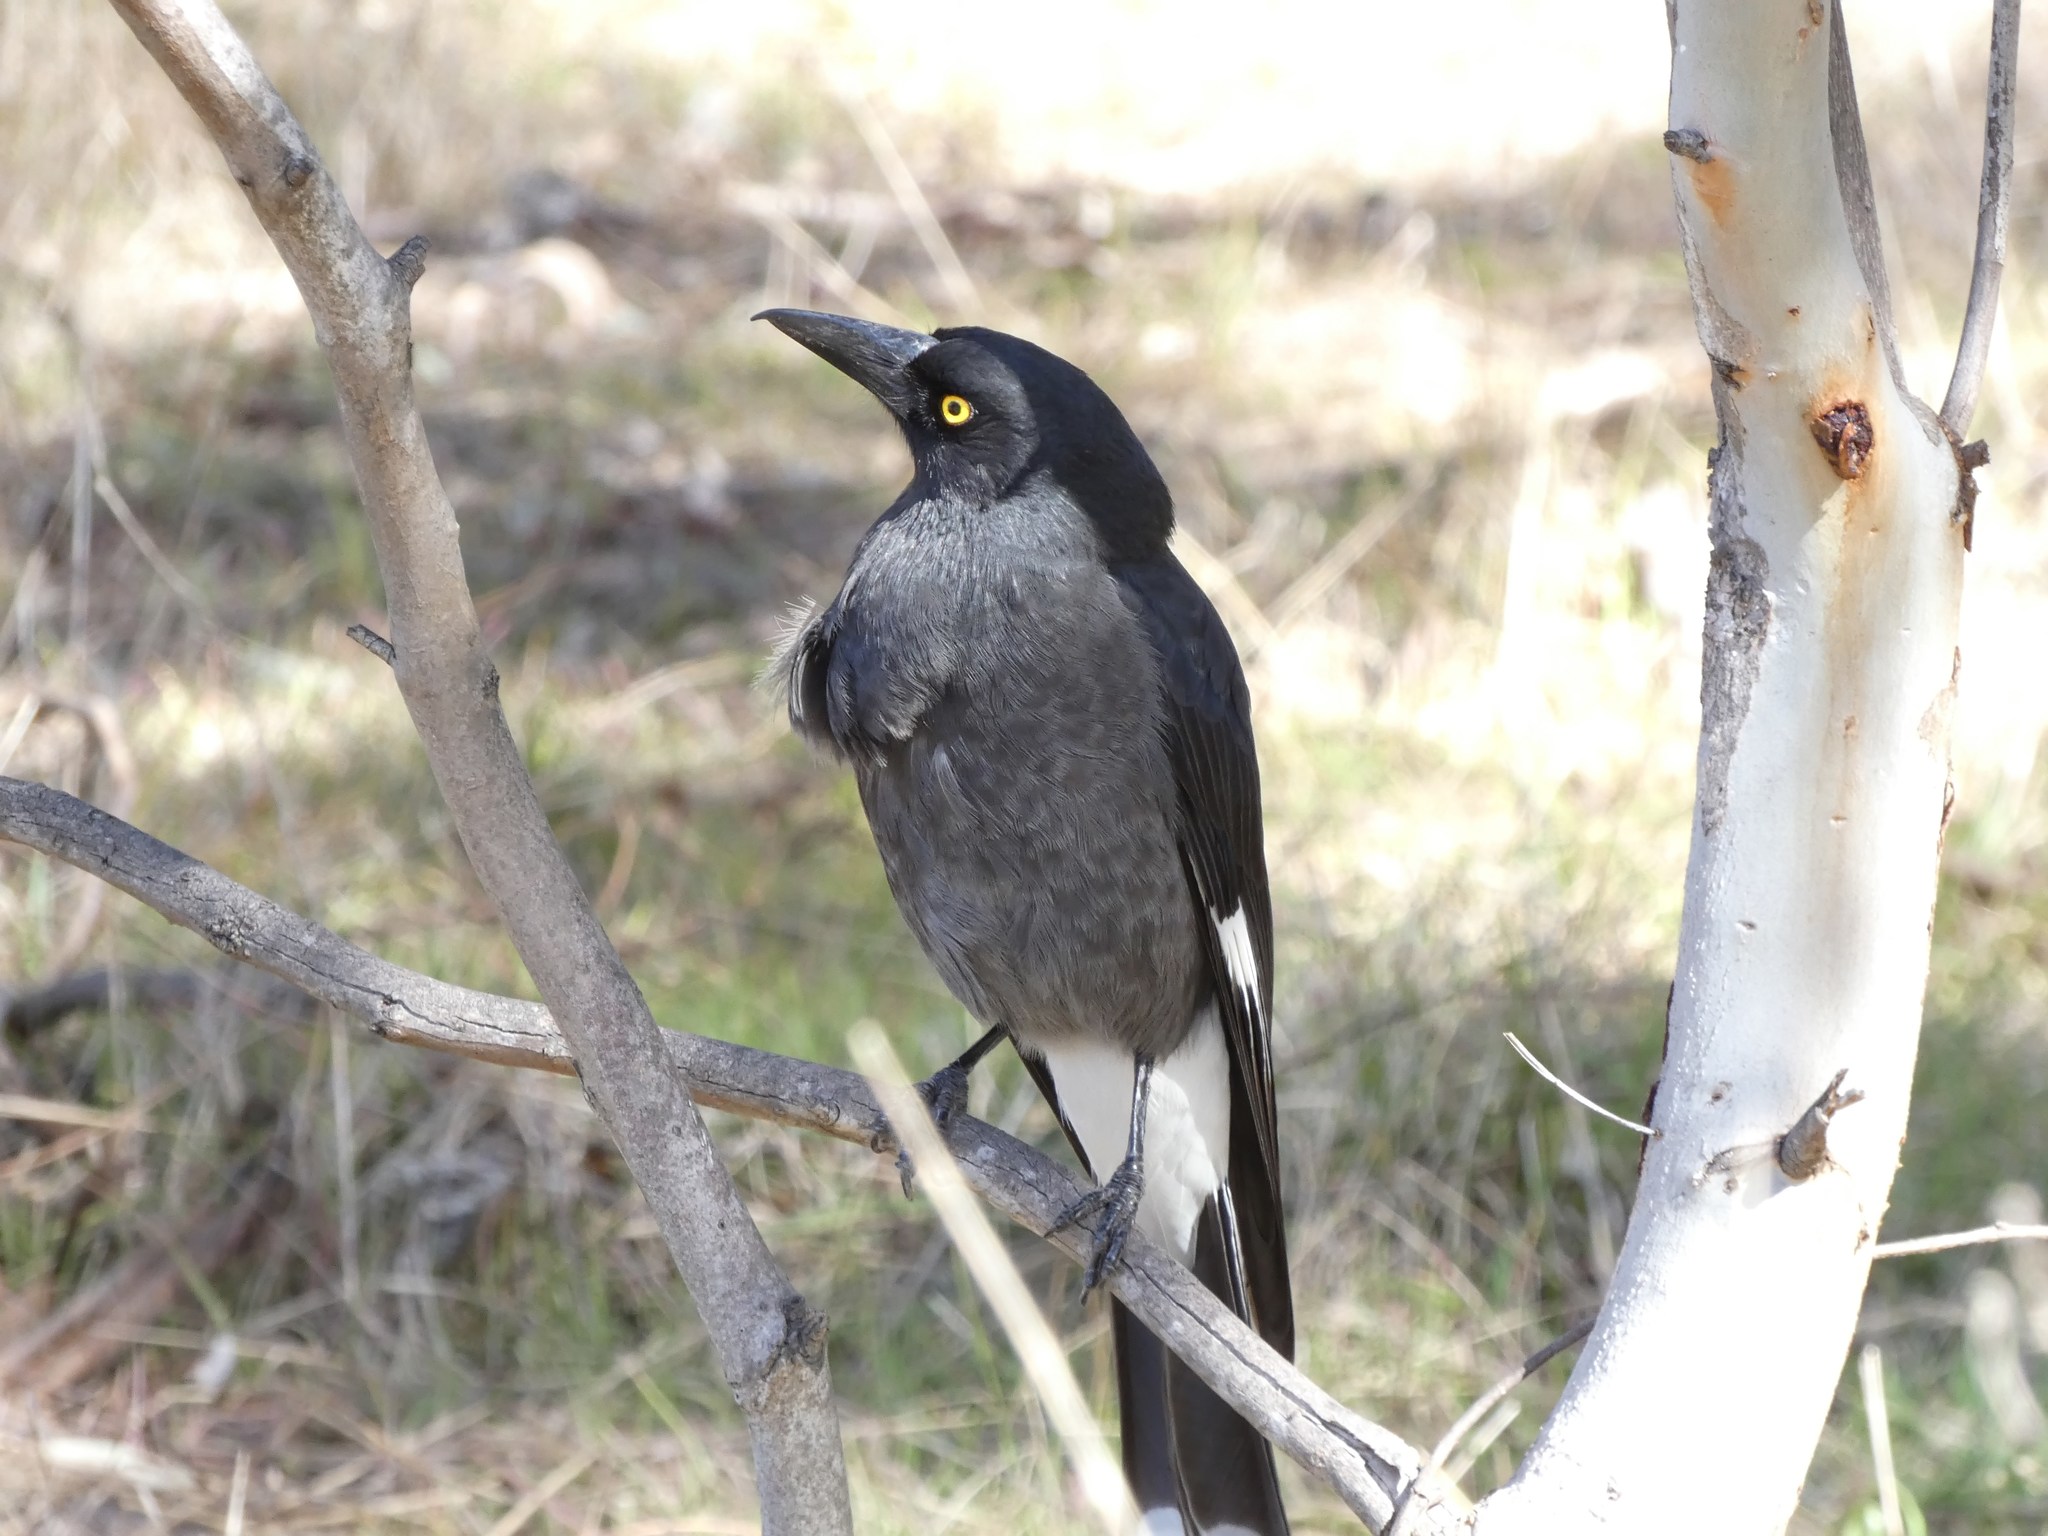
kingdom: Animalia
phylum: Chordata
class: Aves
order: Passeriformes
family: Cracticidae
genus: Strepera
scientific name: Strepera graculina
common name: Pied currawong
